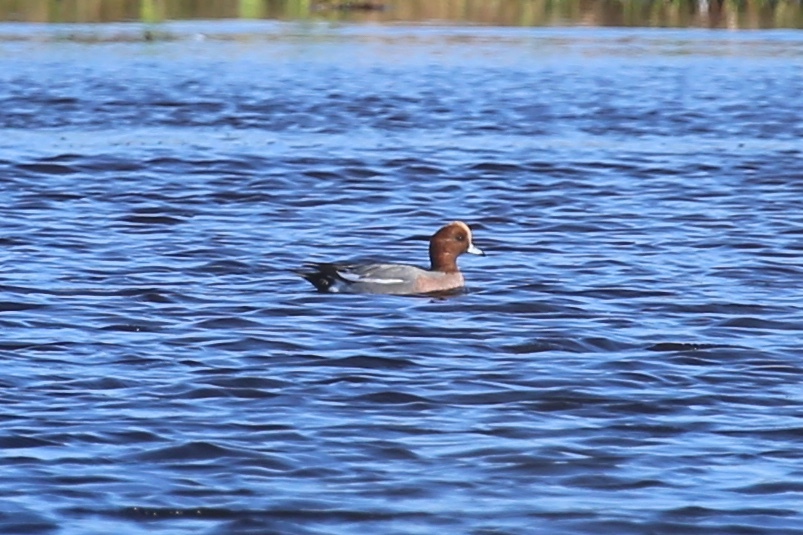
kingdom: Animalia
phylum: Chordata
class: Aves
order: Anseriformes
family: Anatidae
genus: Mareca
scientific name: Mareca penelope
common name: Eurasian wigeon
